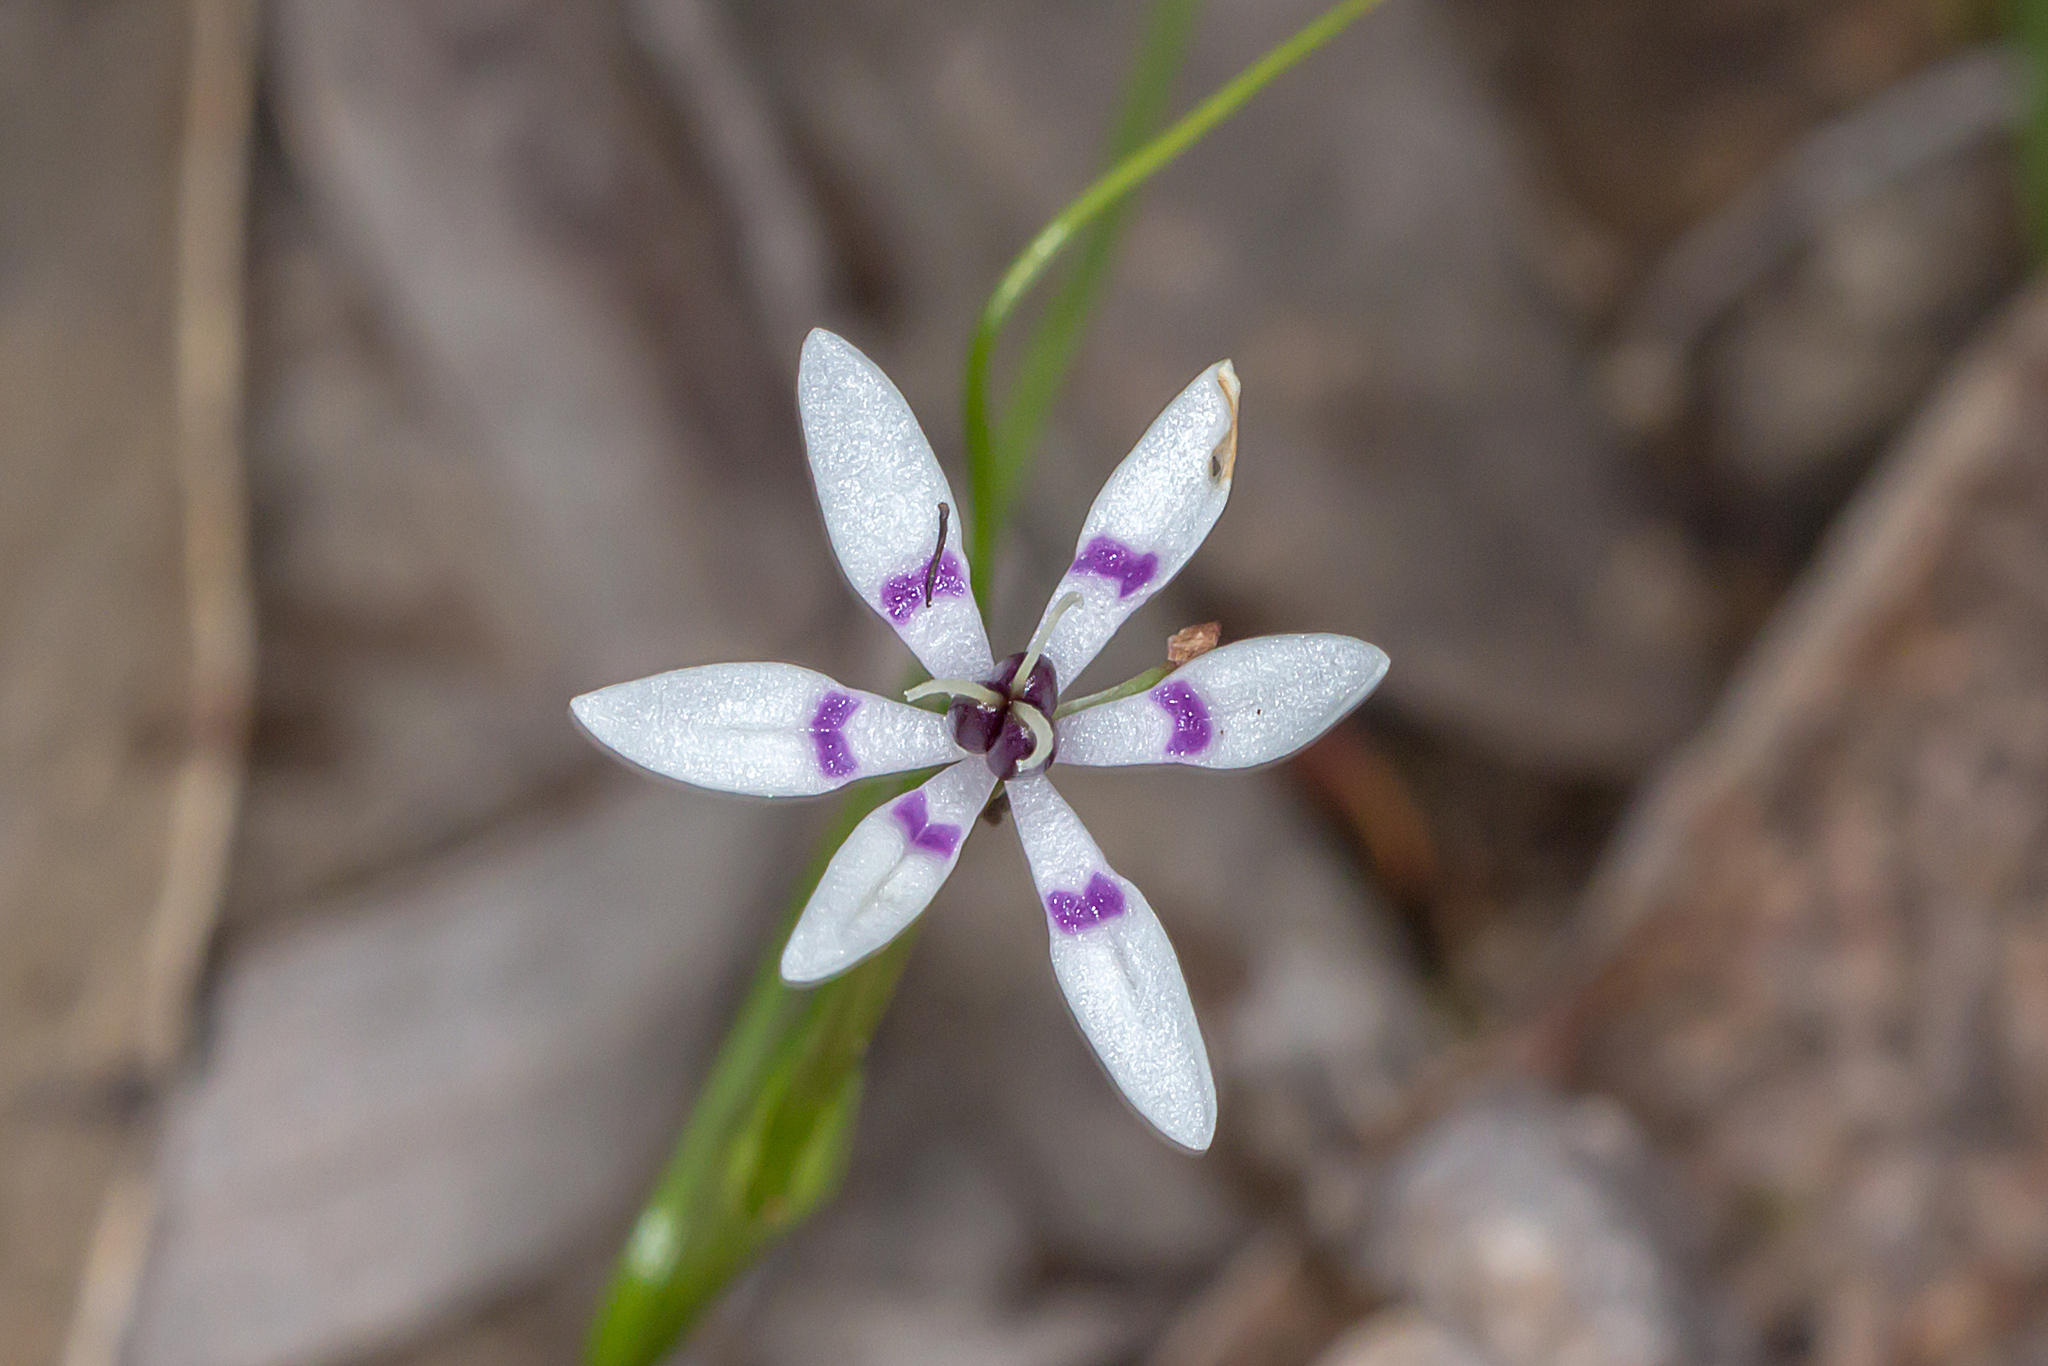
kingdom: Plantae
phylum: Tracheophyta
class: Liliopsida
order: Liliales
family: Colchicaceae
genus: Wurmbea
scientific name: Wurmbea dioica
